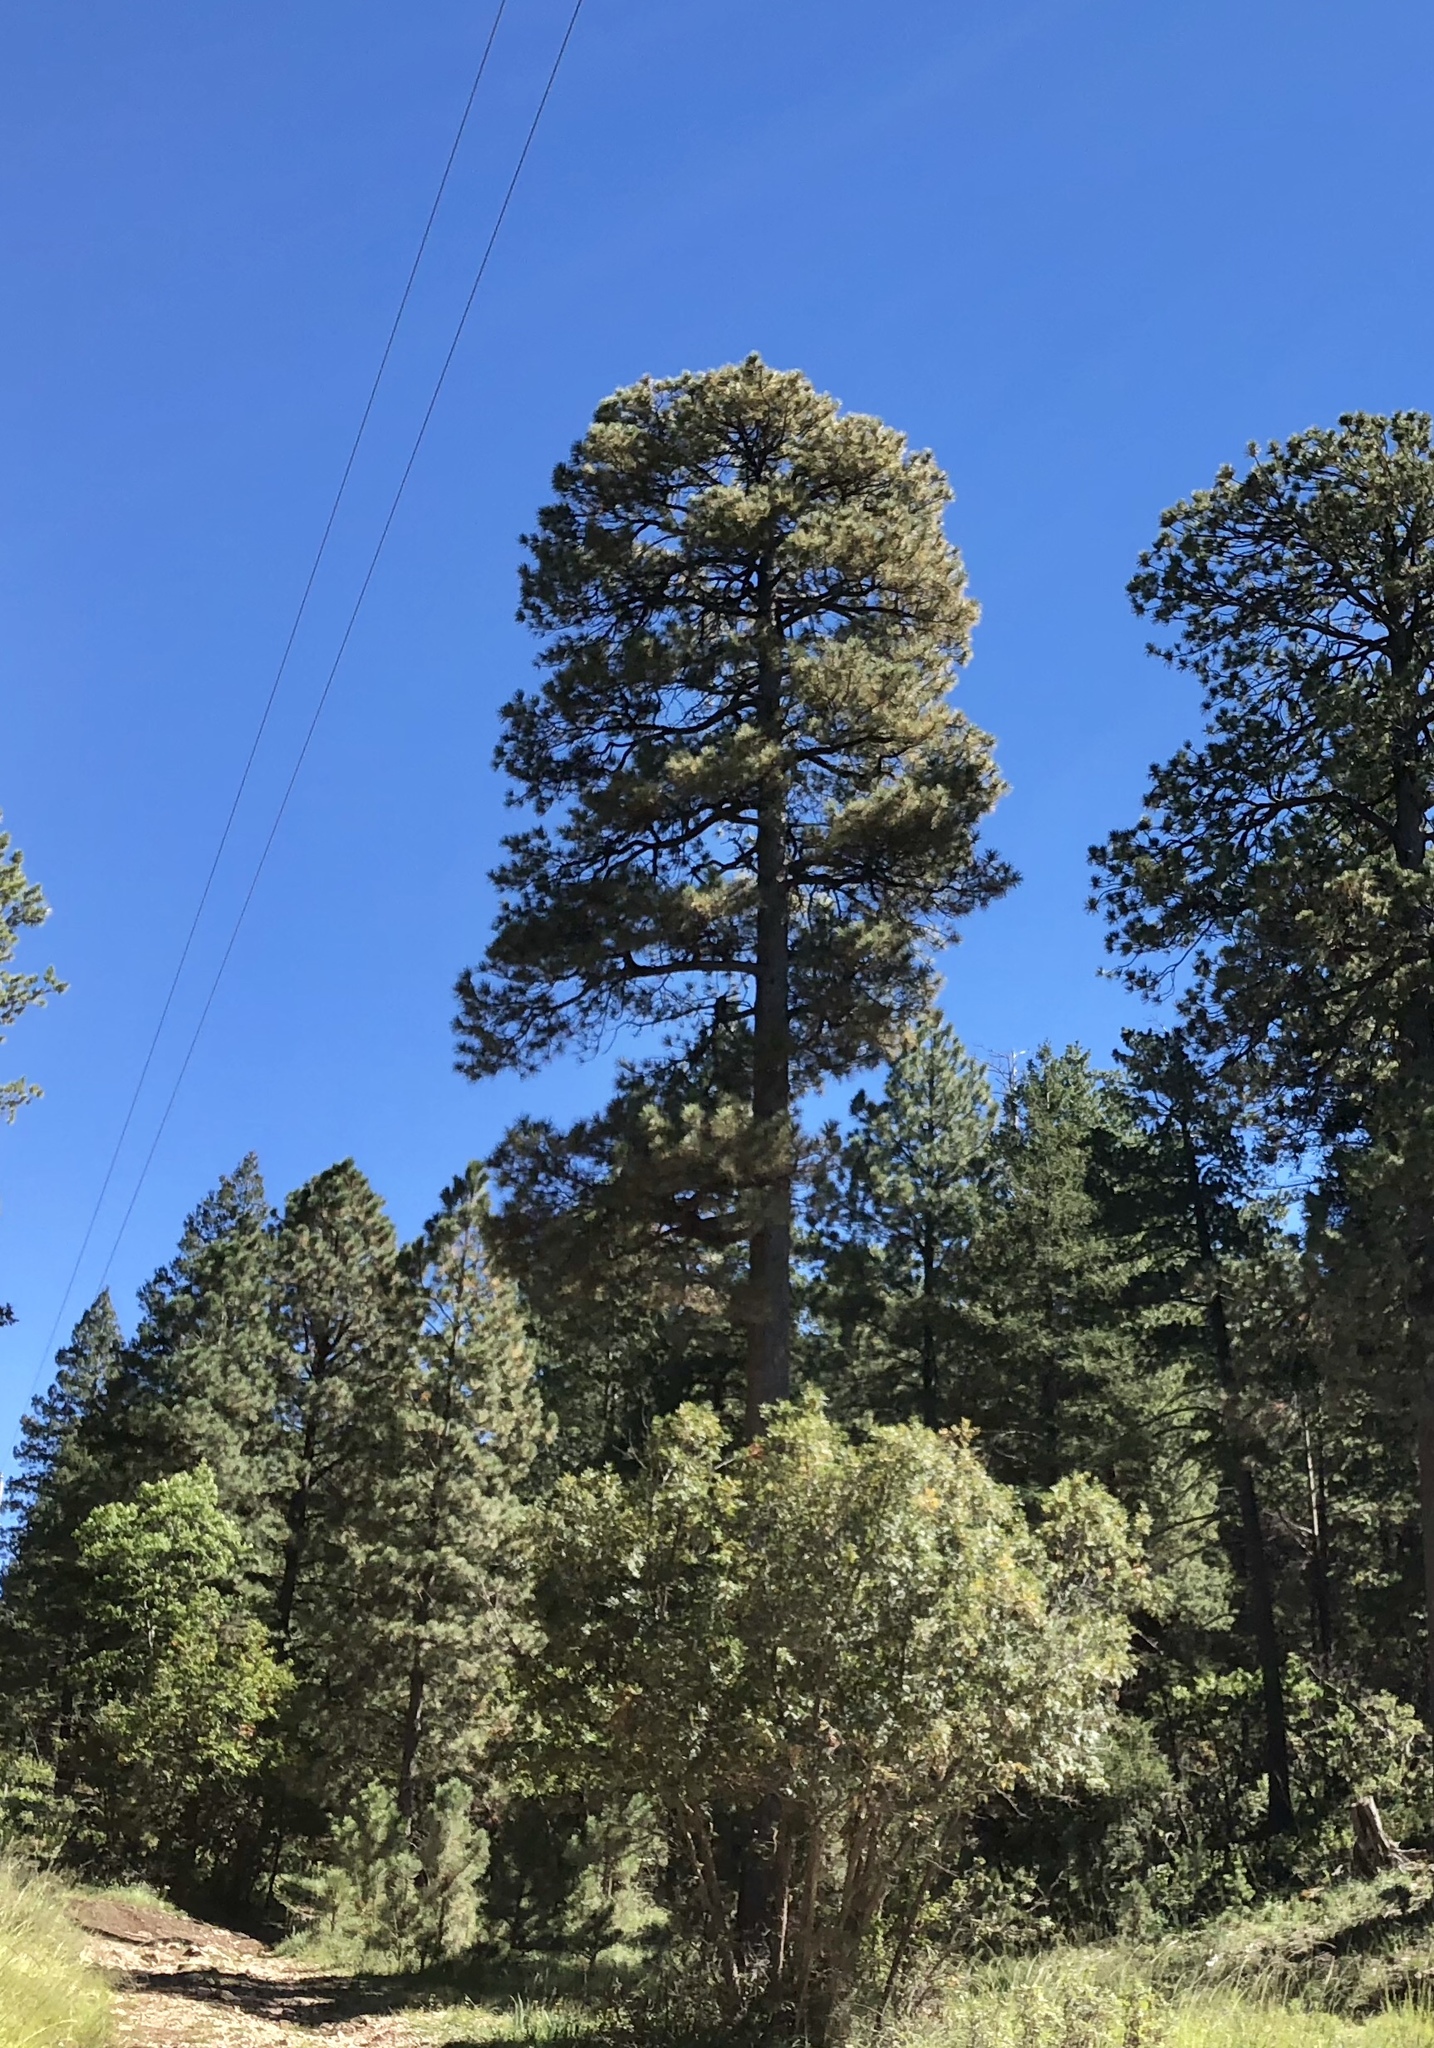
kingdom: Plantae
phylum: Tracheophyta
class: Pinopsida
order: Pinales
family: Pinaceae
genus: Pinus
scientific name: Pinus ponderosa
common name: Western yellow-pine
